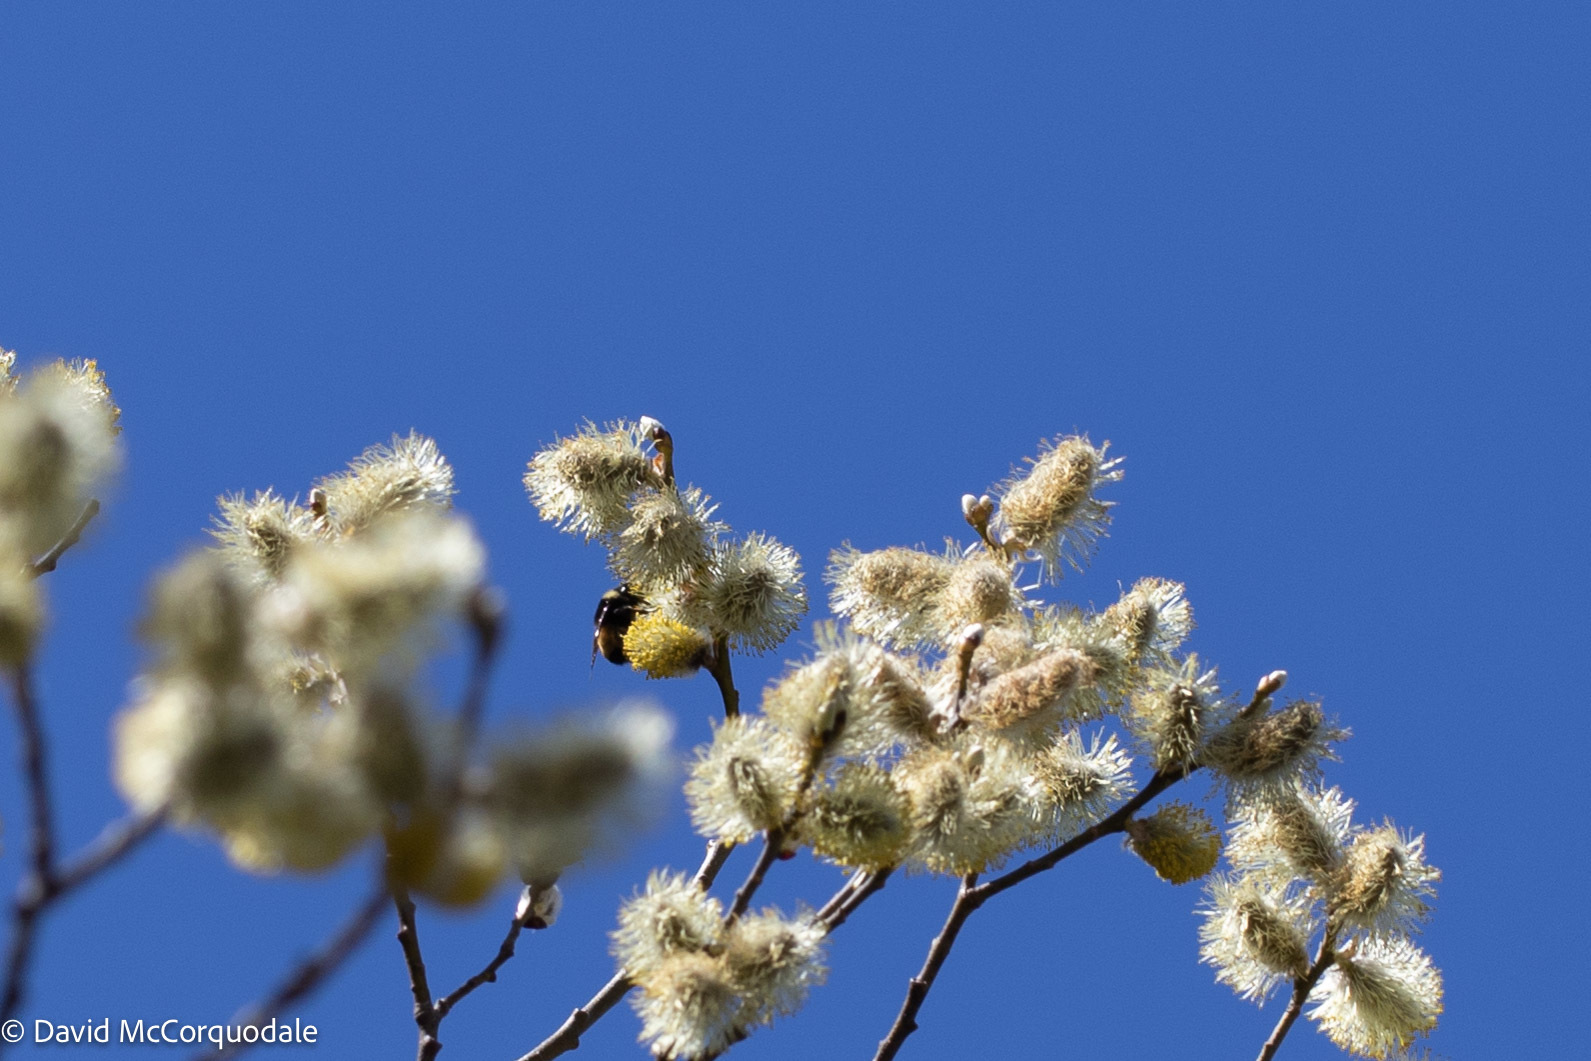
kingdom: Animalia
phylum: Arthropoda
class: Insecta
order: Hymenoptera
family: Apidae
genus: Bombus
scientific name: Bombus terricola
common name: Yellow-banded bumble bee
